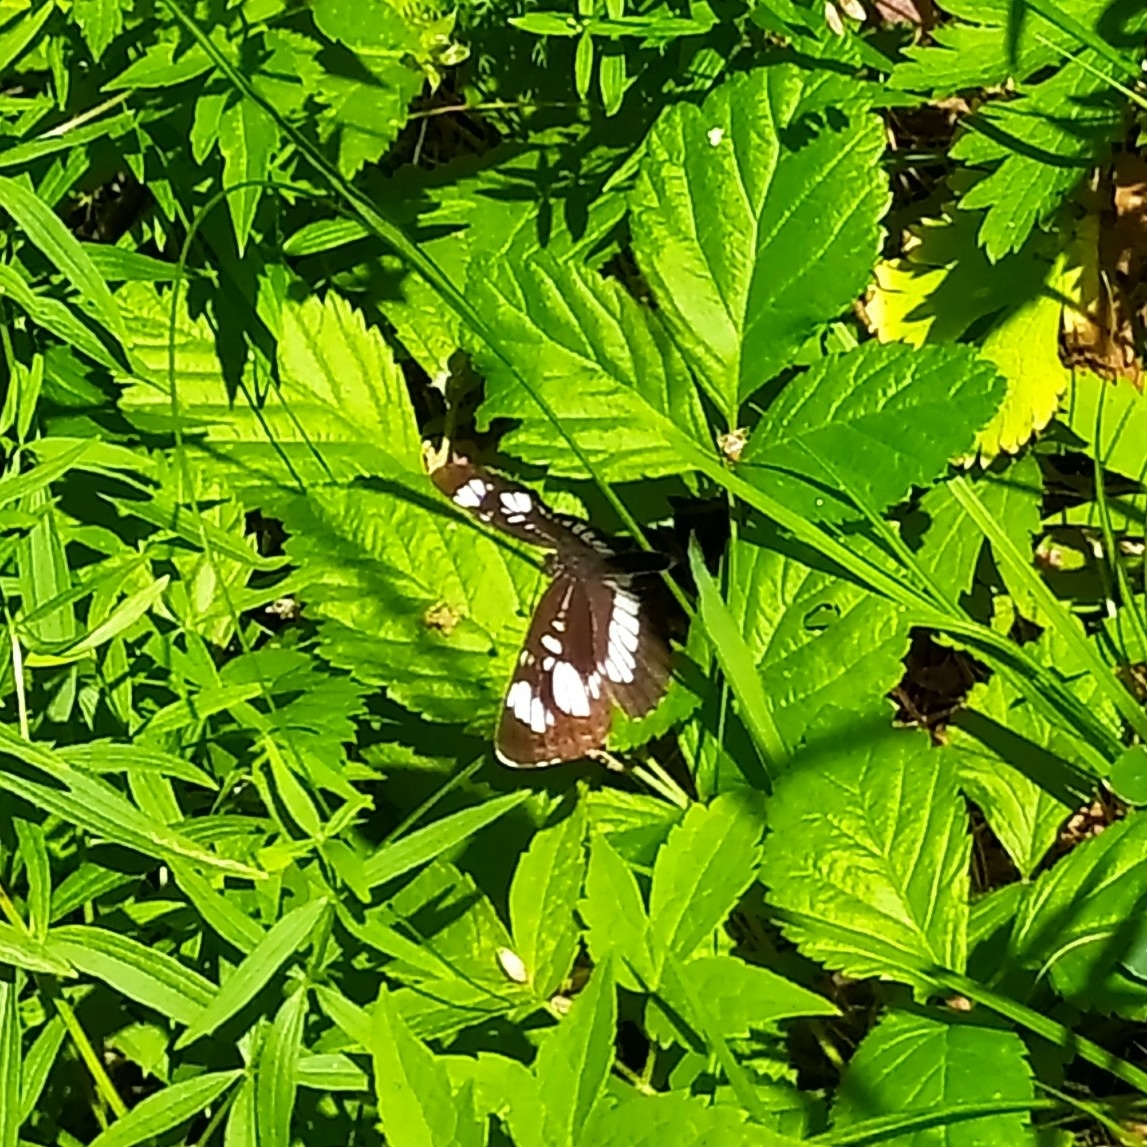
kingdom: Animalia
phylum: Arthropoda
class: Insecta
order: Lepidoptera
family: Nymphalidae
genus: Neptis
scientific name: Neptis rivularis
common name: Hungarian glider
